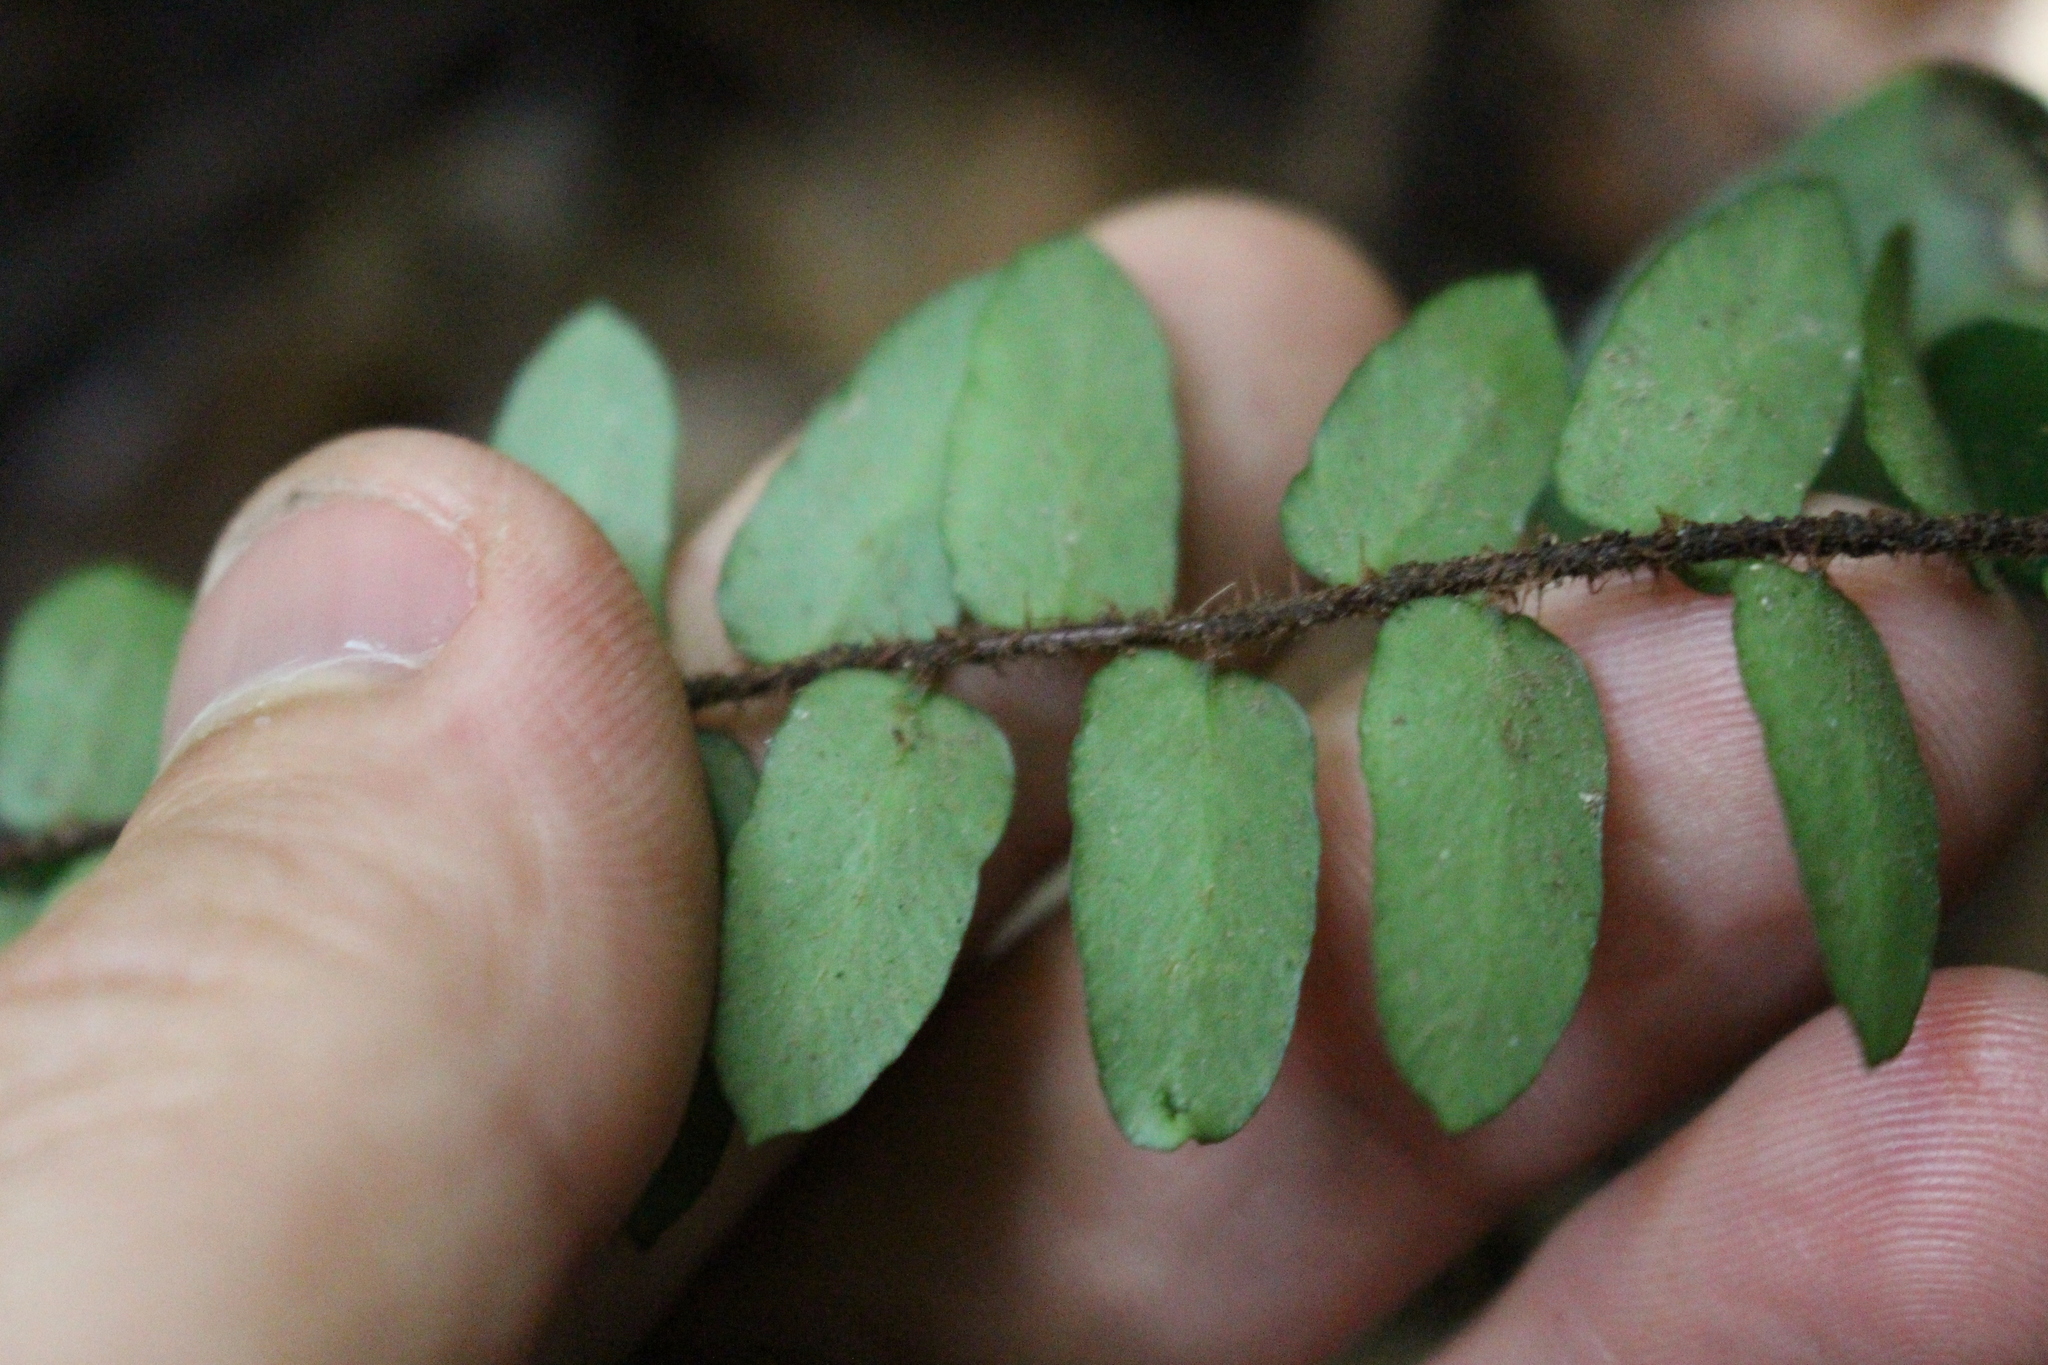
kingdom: Plantae
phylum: Tracheophyta
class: Polypodiopsida
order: Polypodiales
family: Pteridaceae
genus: Pellaea
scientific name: Pellaea rotundifolia
